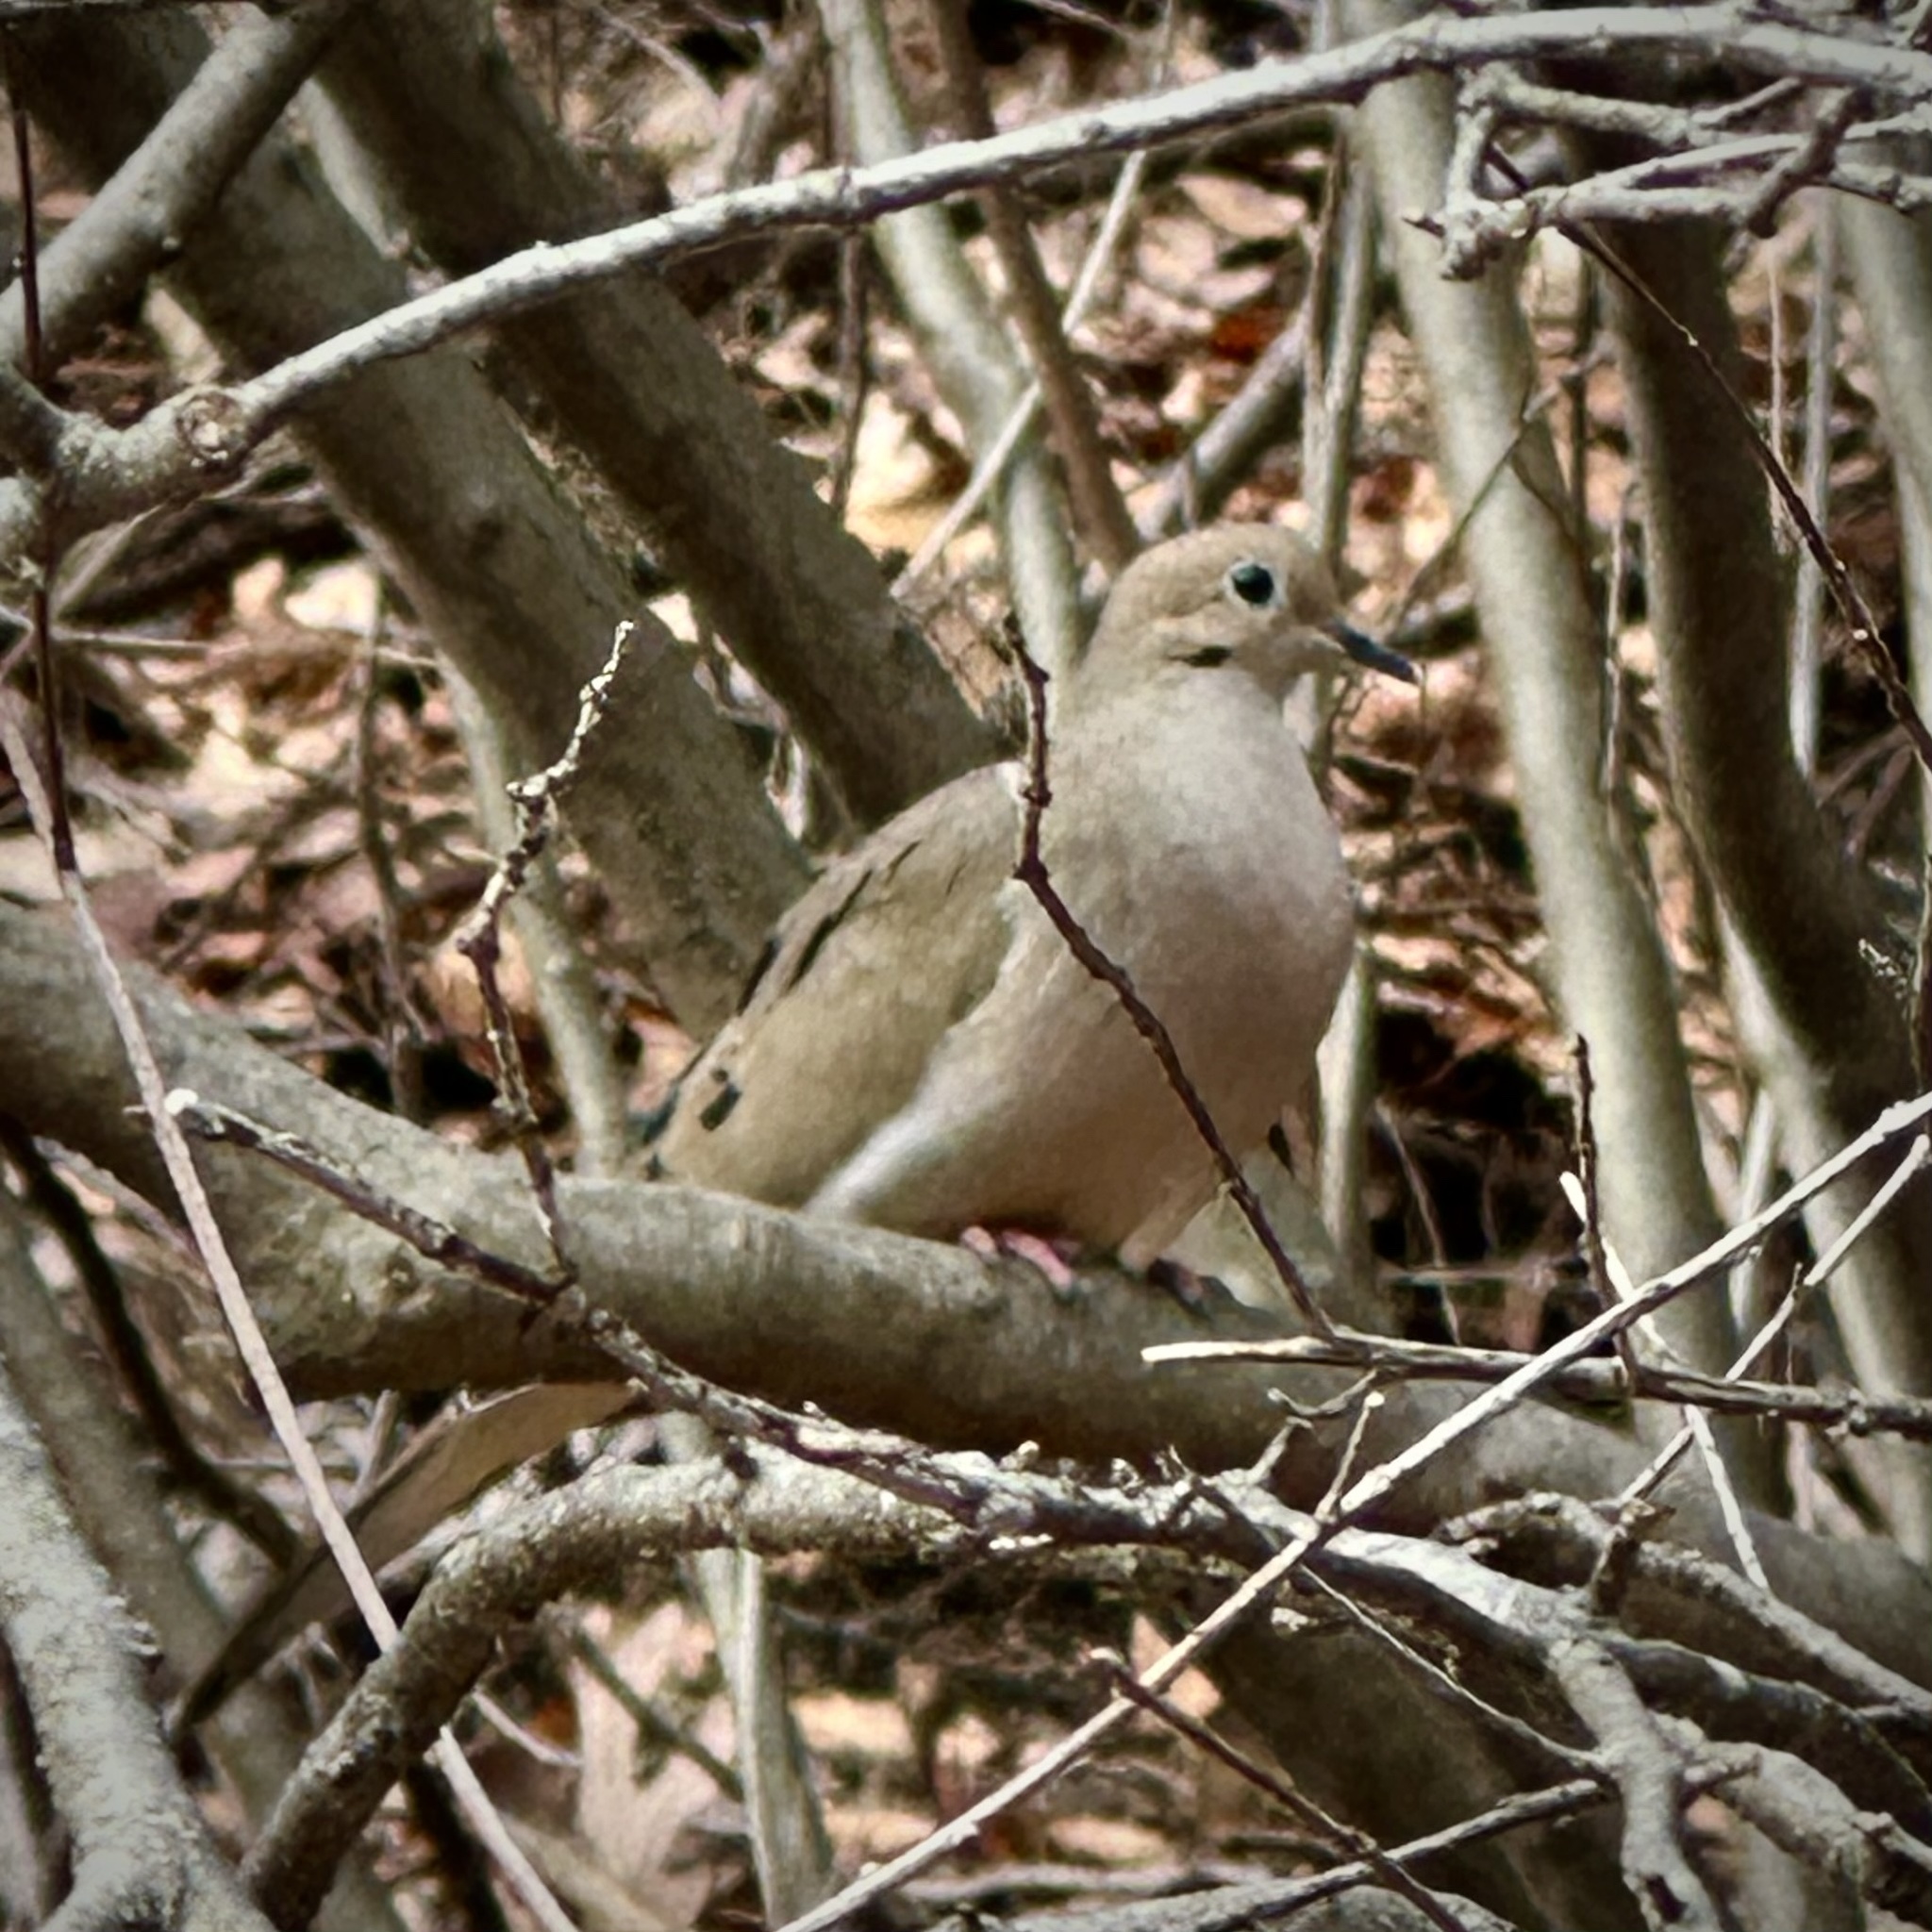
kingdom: Animalia
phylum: Chordata
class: Aves
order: Columbiformes
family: Columbidae
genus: Zenaida
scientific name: Zenaida macroura
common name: Mourning dove
